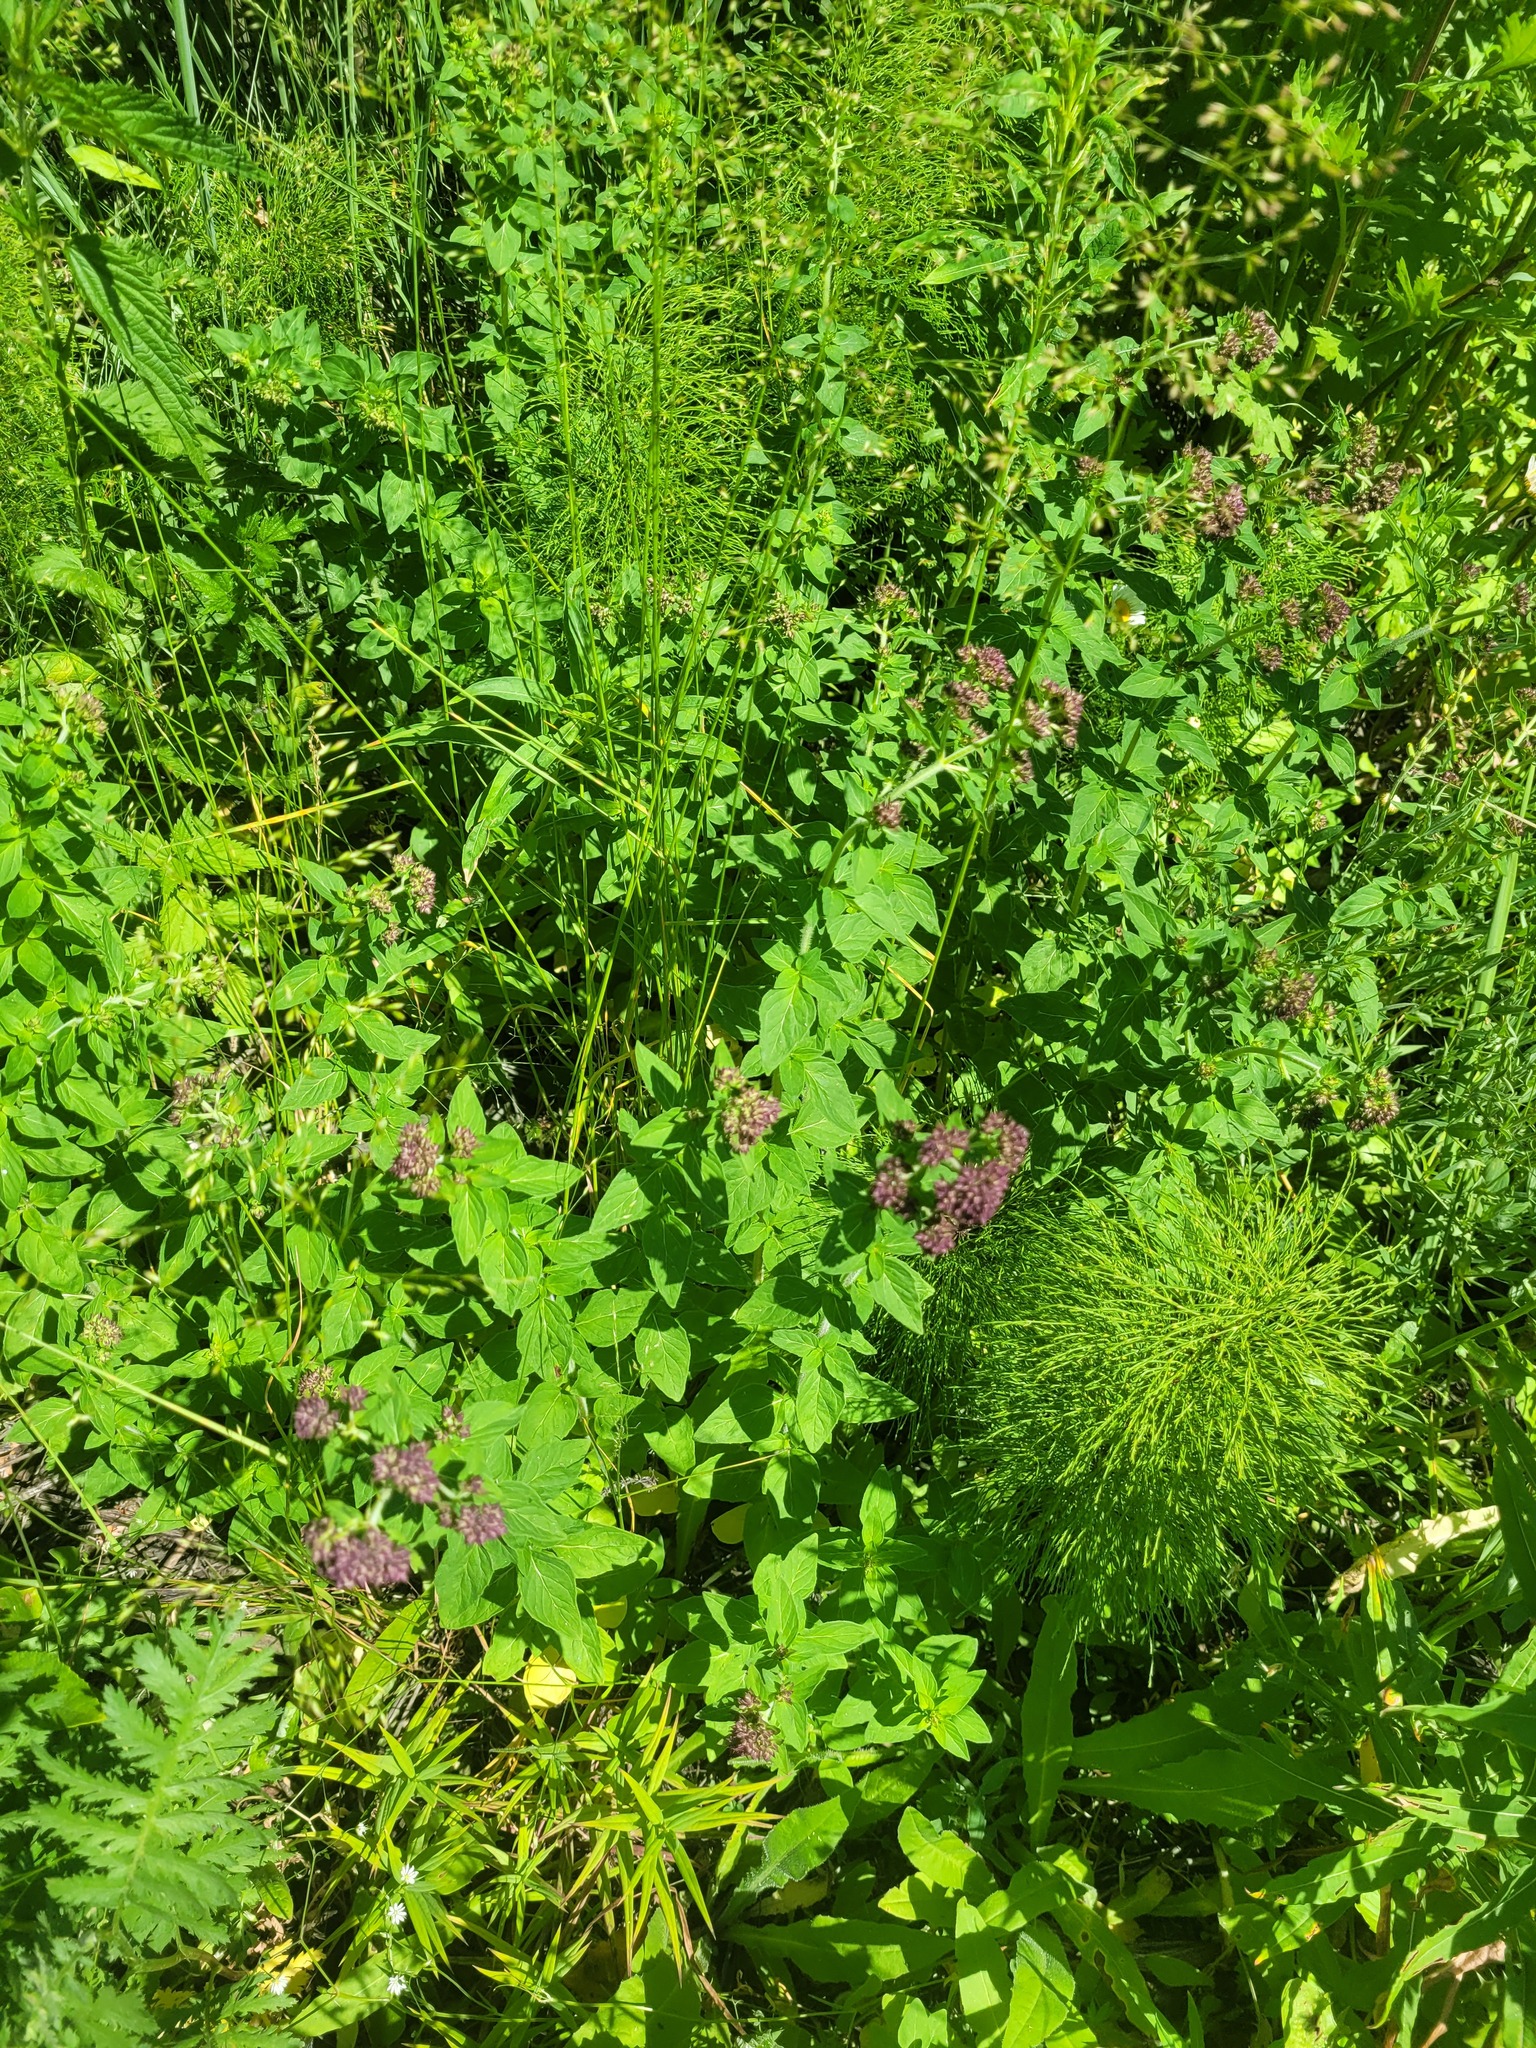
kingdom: Plantae
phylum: Tracheophyta
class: Magnoliopsida
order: Lamiales
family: Lamiaceae
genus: Origanum
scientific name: Origanum vulgare
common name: Wild marjoram
